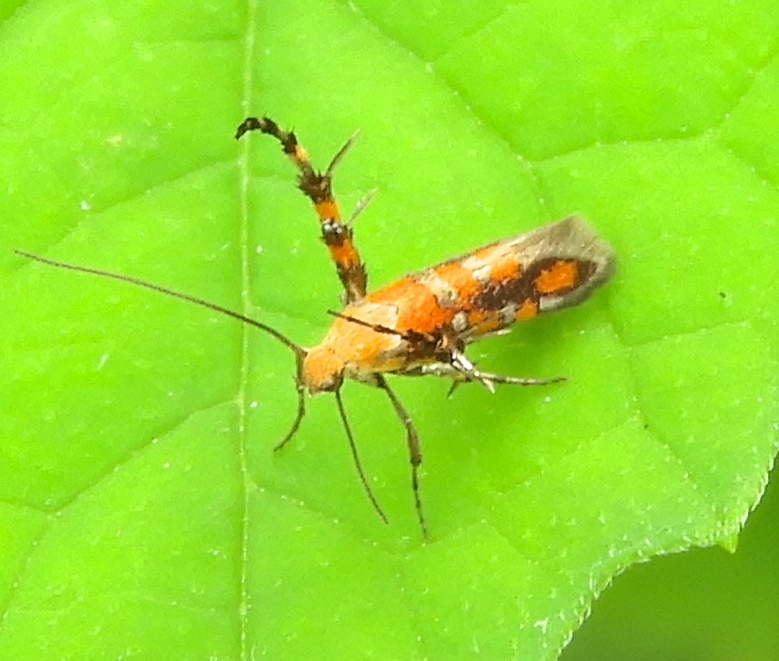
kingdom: Animalia
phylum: Arthropoda
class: Insecta
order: Lepidoptera
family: Heliodinidae
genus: Heliodines
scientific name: Heliodines
